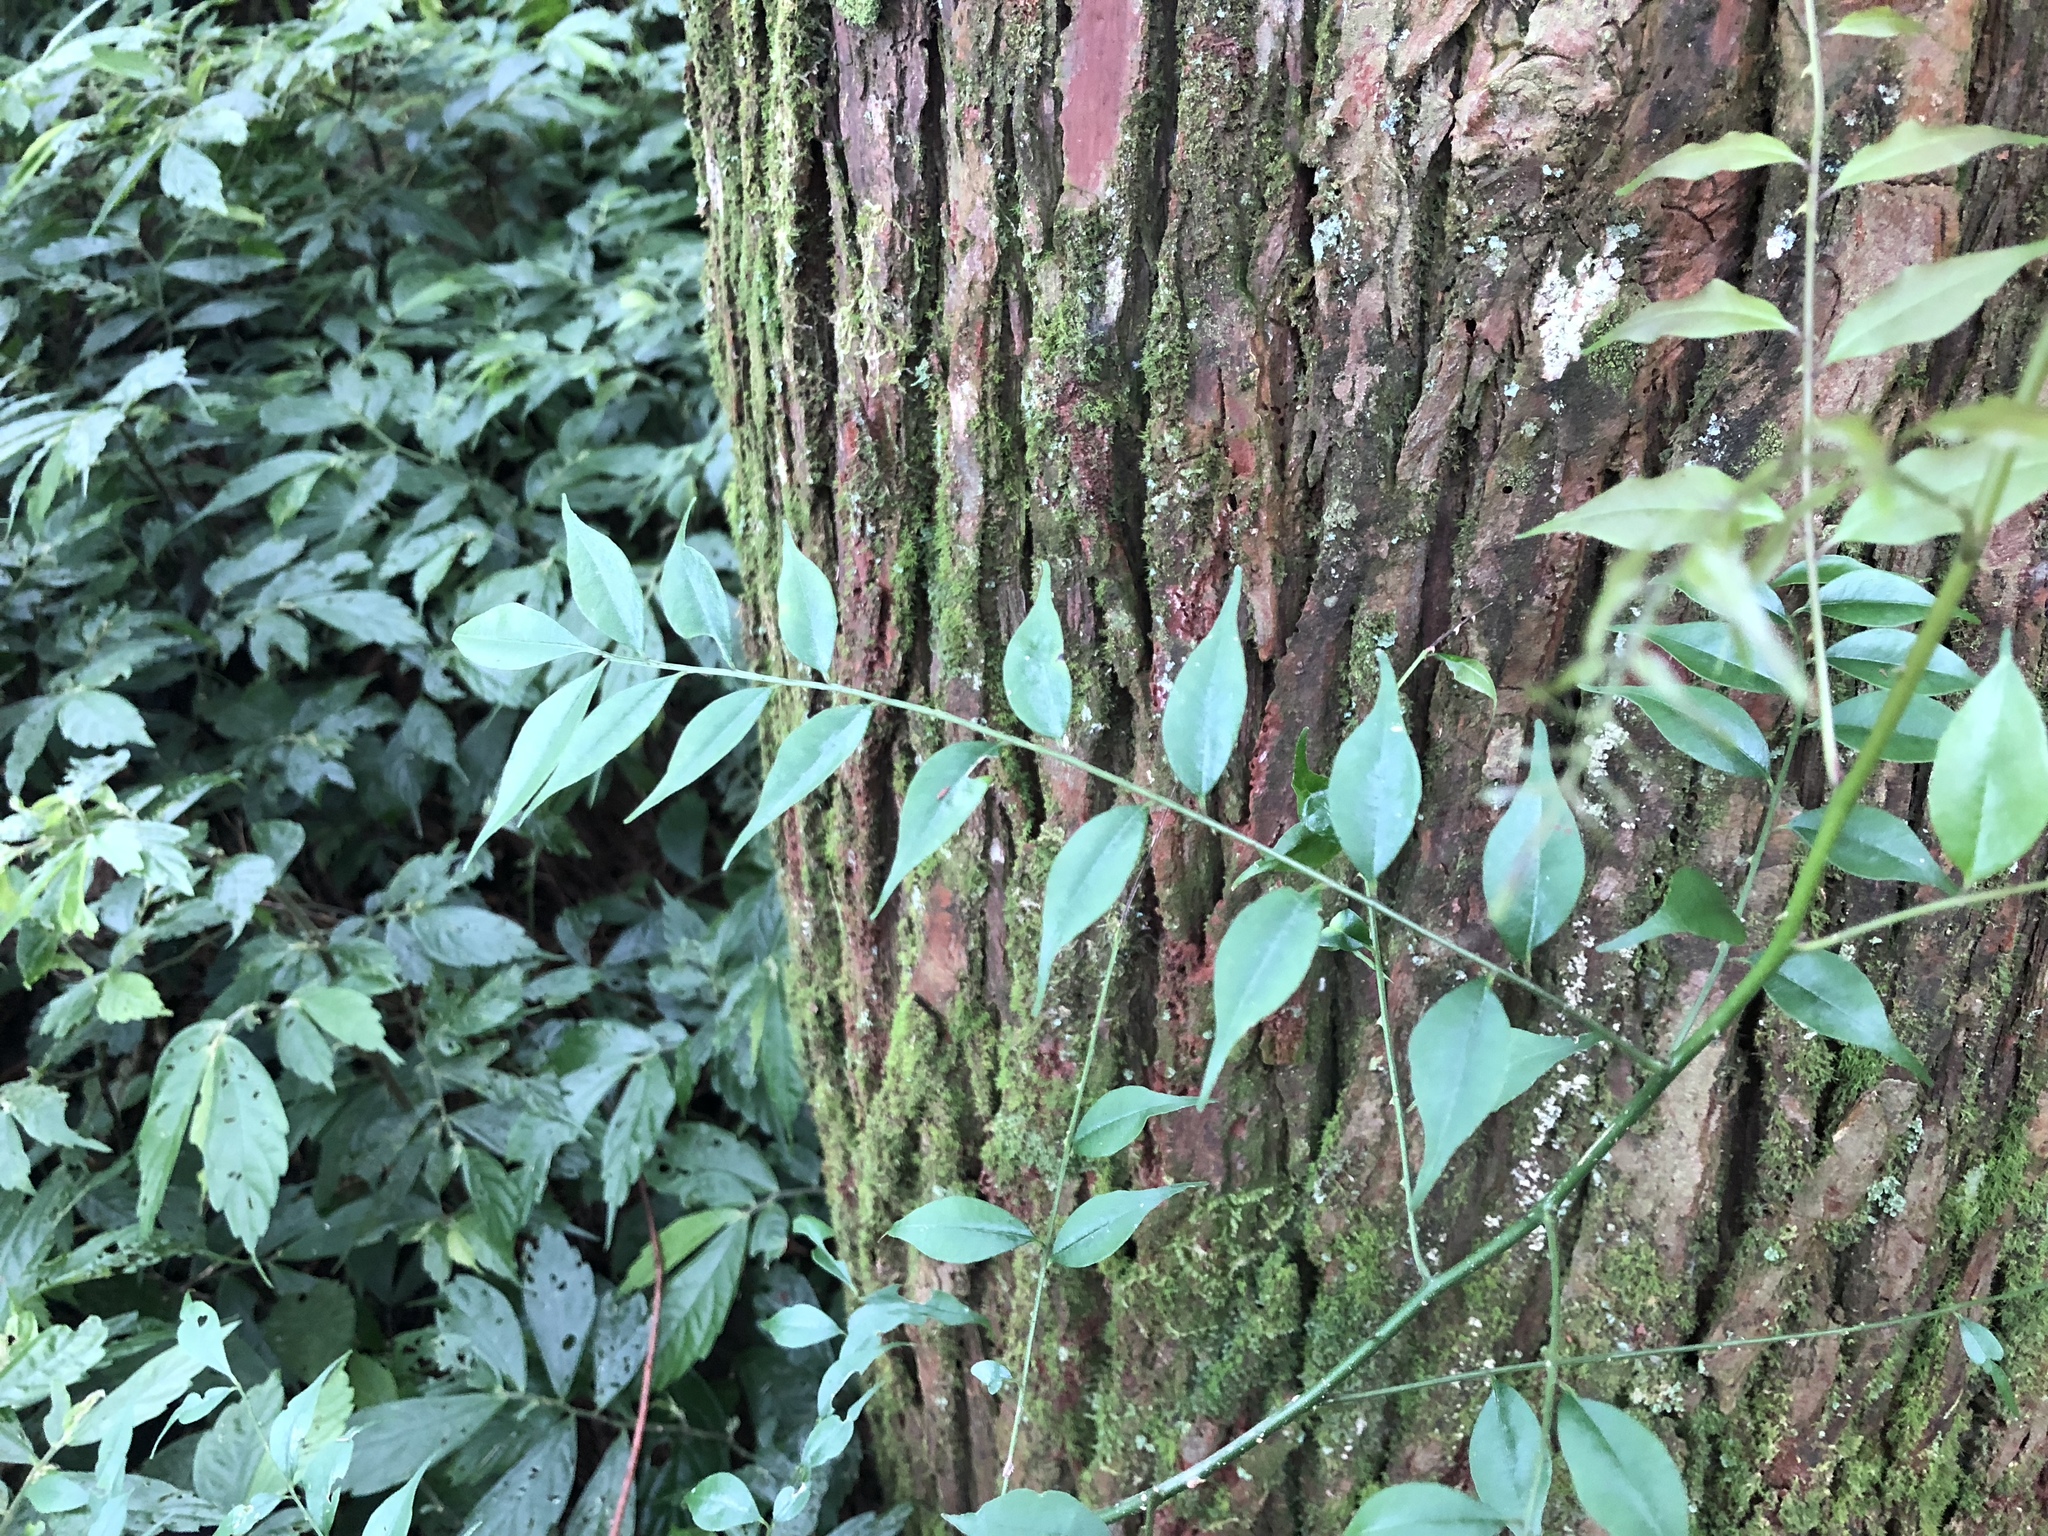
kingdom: Plantae
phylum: Tracheophyta
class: Magnoliopsida
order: Sapindales
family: Rutaceae
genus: Zanthoxylum
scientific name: Zanthoxylum scandens
